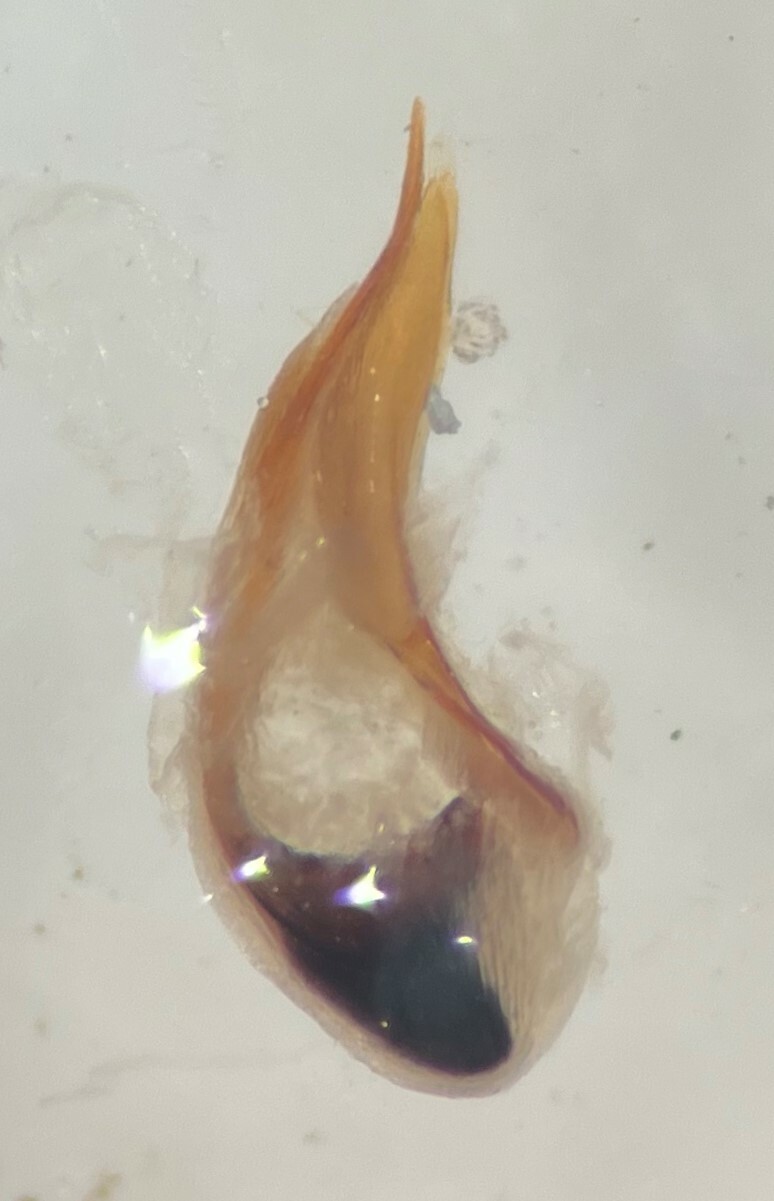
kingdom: Animalia
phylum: Arthropoda
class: Insecta
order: Coleoptera
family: Dytiscidae
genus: Hygrotus
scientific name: Hygrotus wardii
